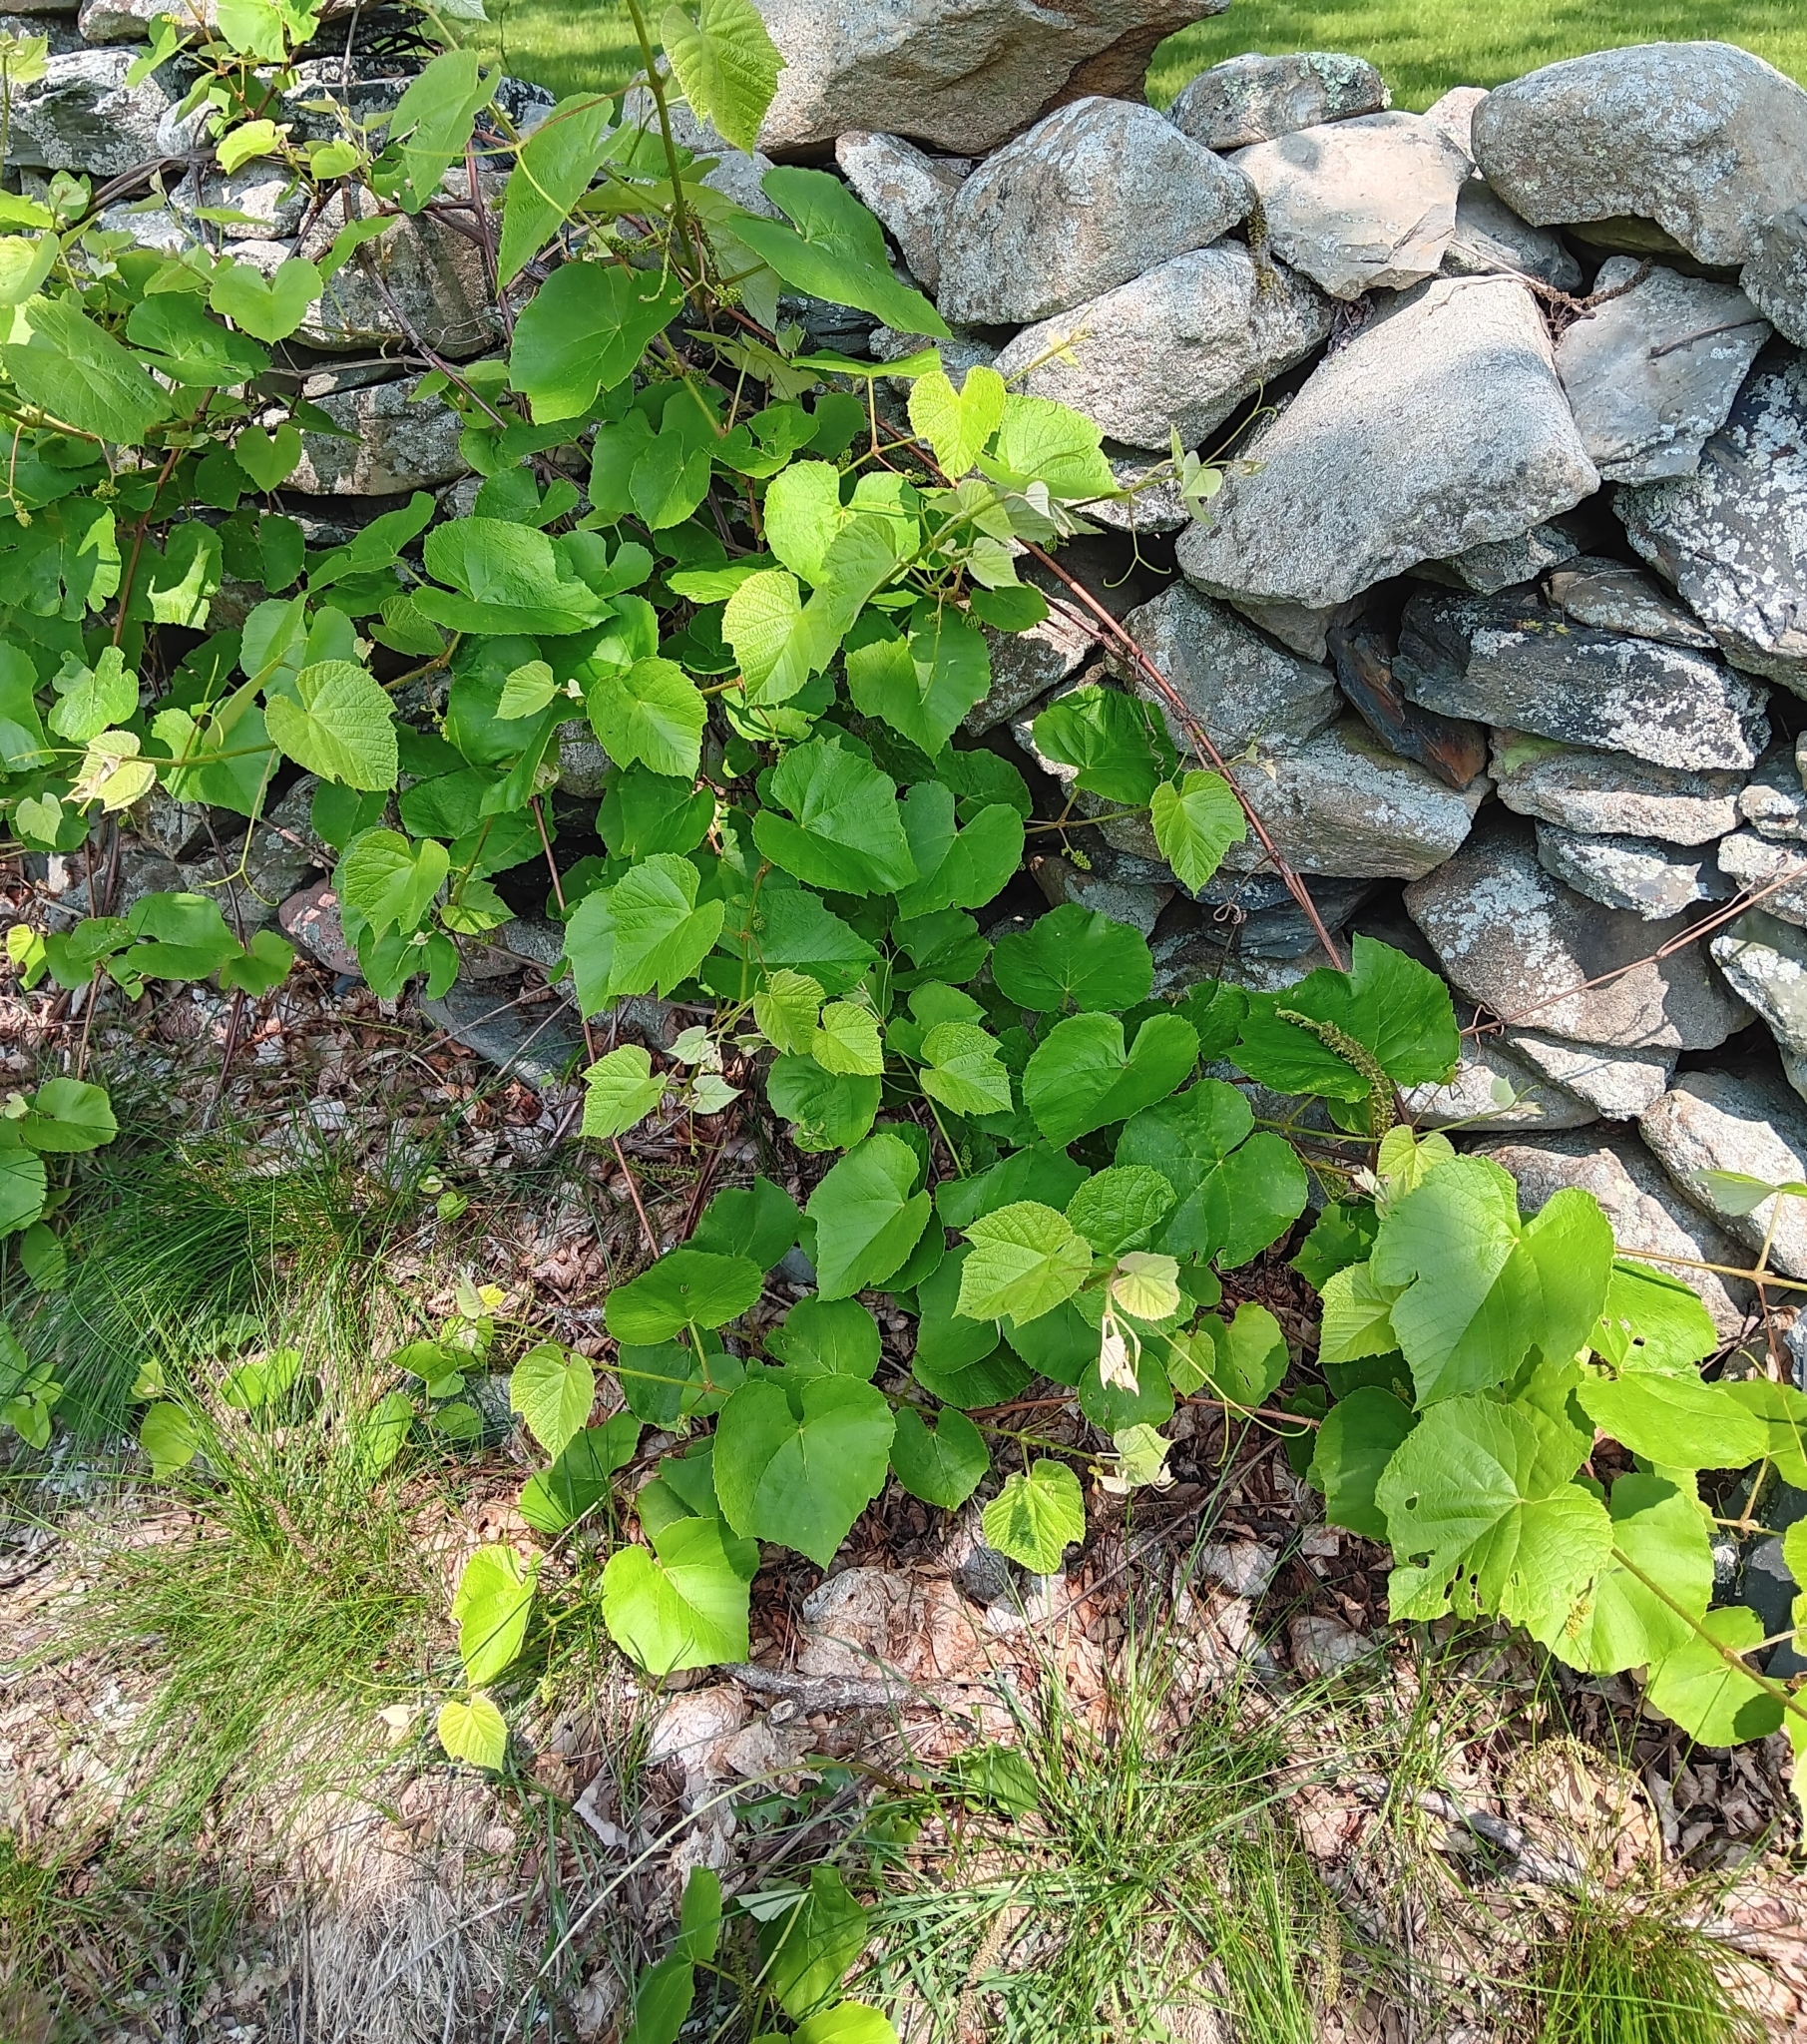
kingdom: Plantae
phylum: Tracheophyta
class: Magnoliopsida
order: Vitales
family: Vitaceae
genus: Vitis
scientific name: Vitis labrusca
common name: Concord grape
